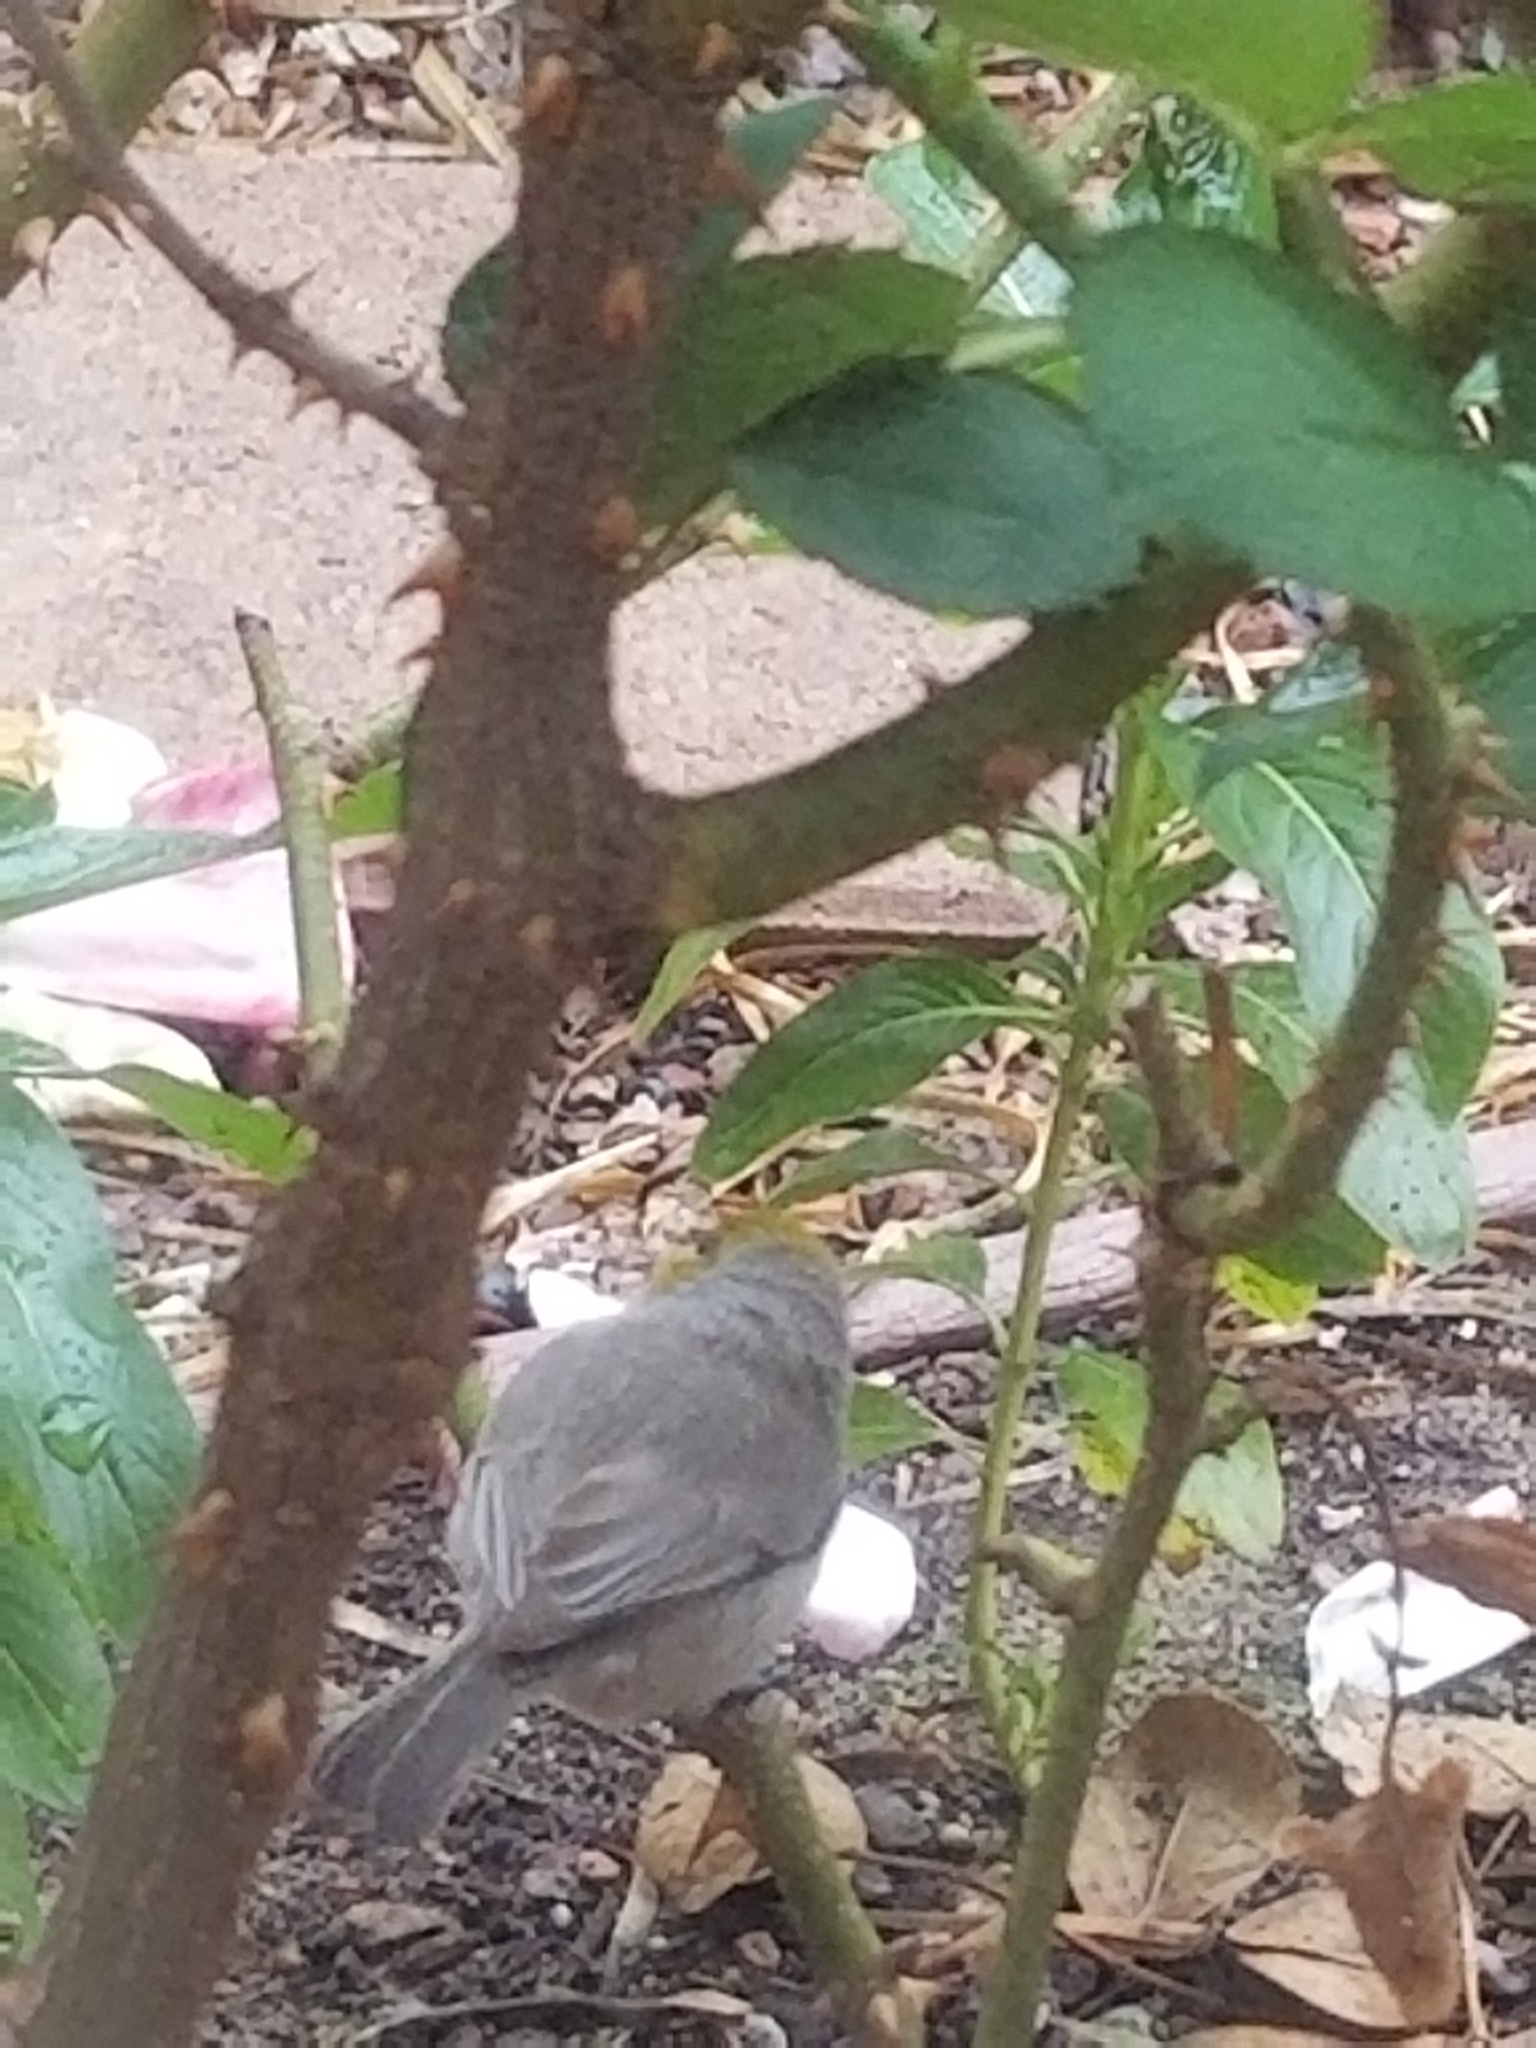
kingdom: Animalia
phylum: Chordata
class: Aves
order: Passeriformes
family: Remizidae
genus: Auriparus
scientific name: Auriparus flaviceps
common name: Verdin
